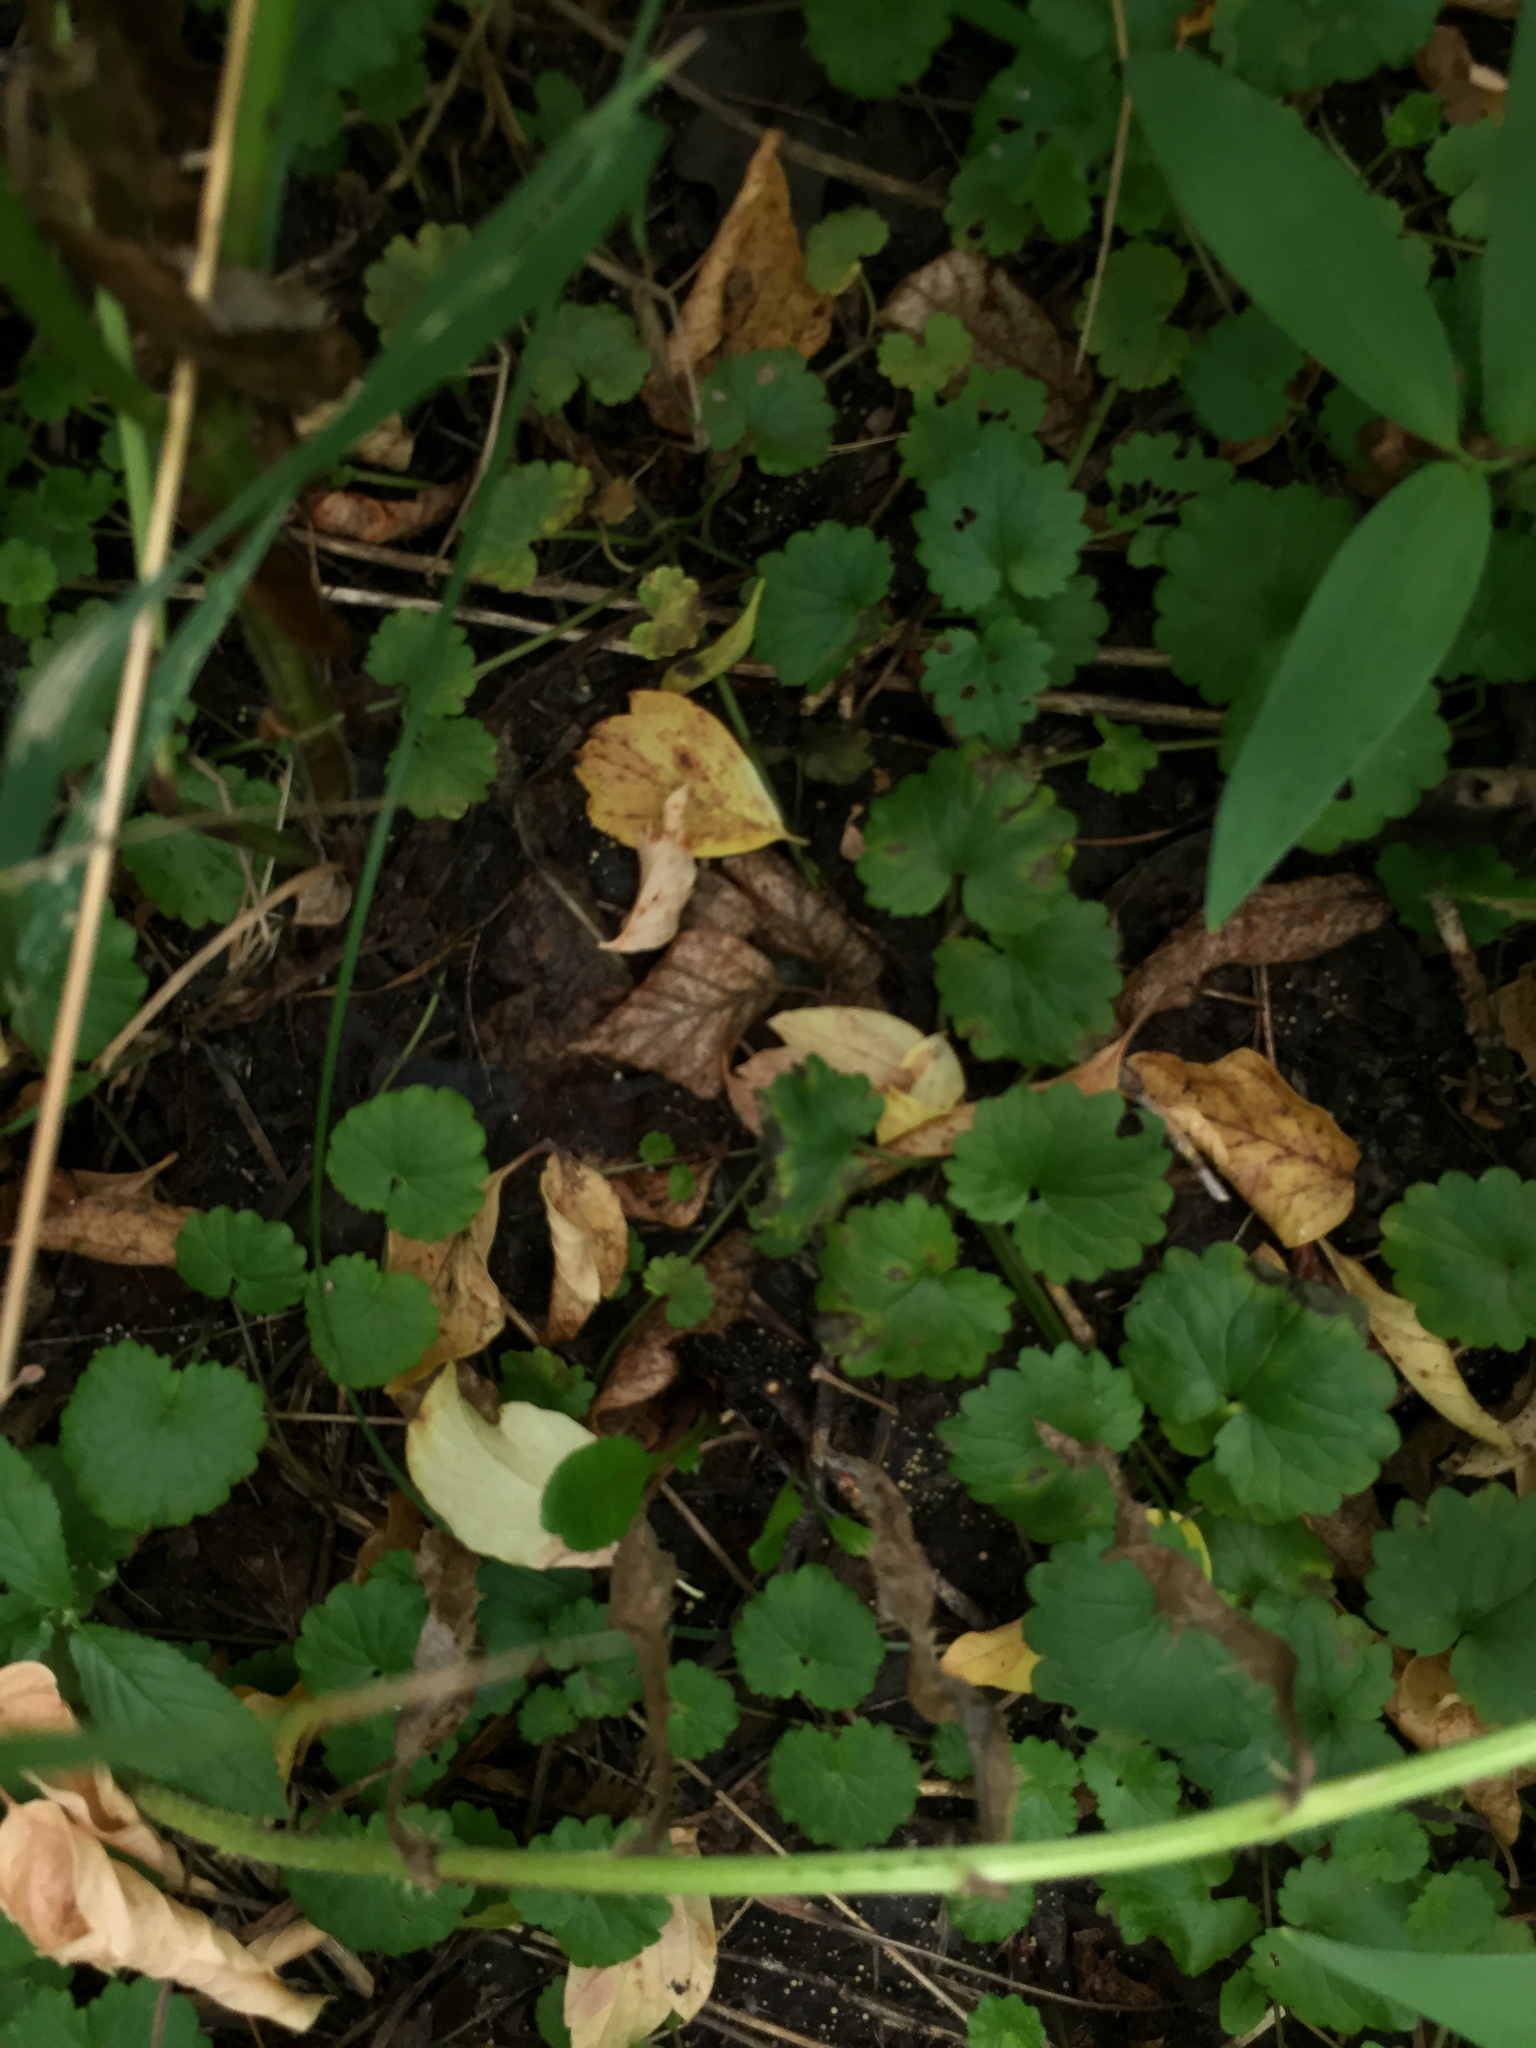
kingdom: Plantae
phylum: Tracheophyta
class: Magnoliopsida
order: Lamiales
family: Lamiaceae
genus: Glechoma
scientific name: Glechoma hederacea
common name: Ground ivy
